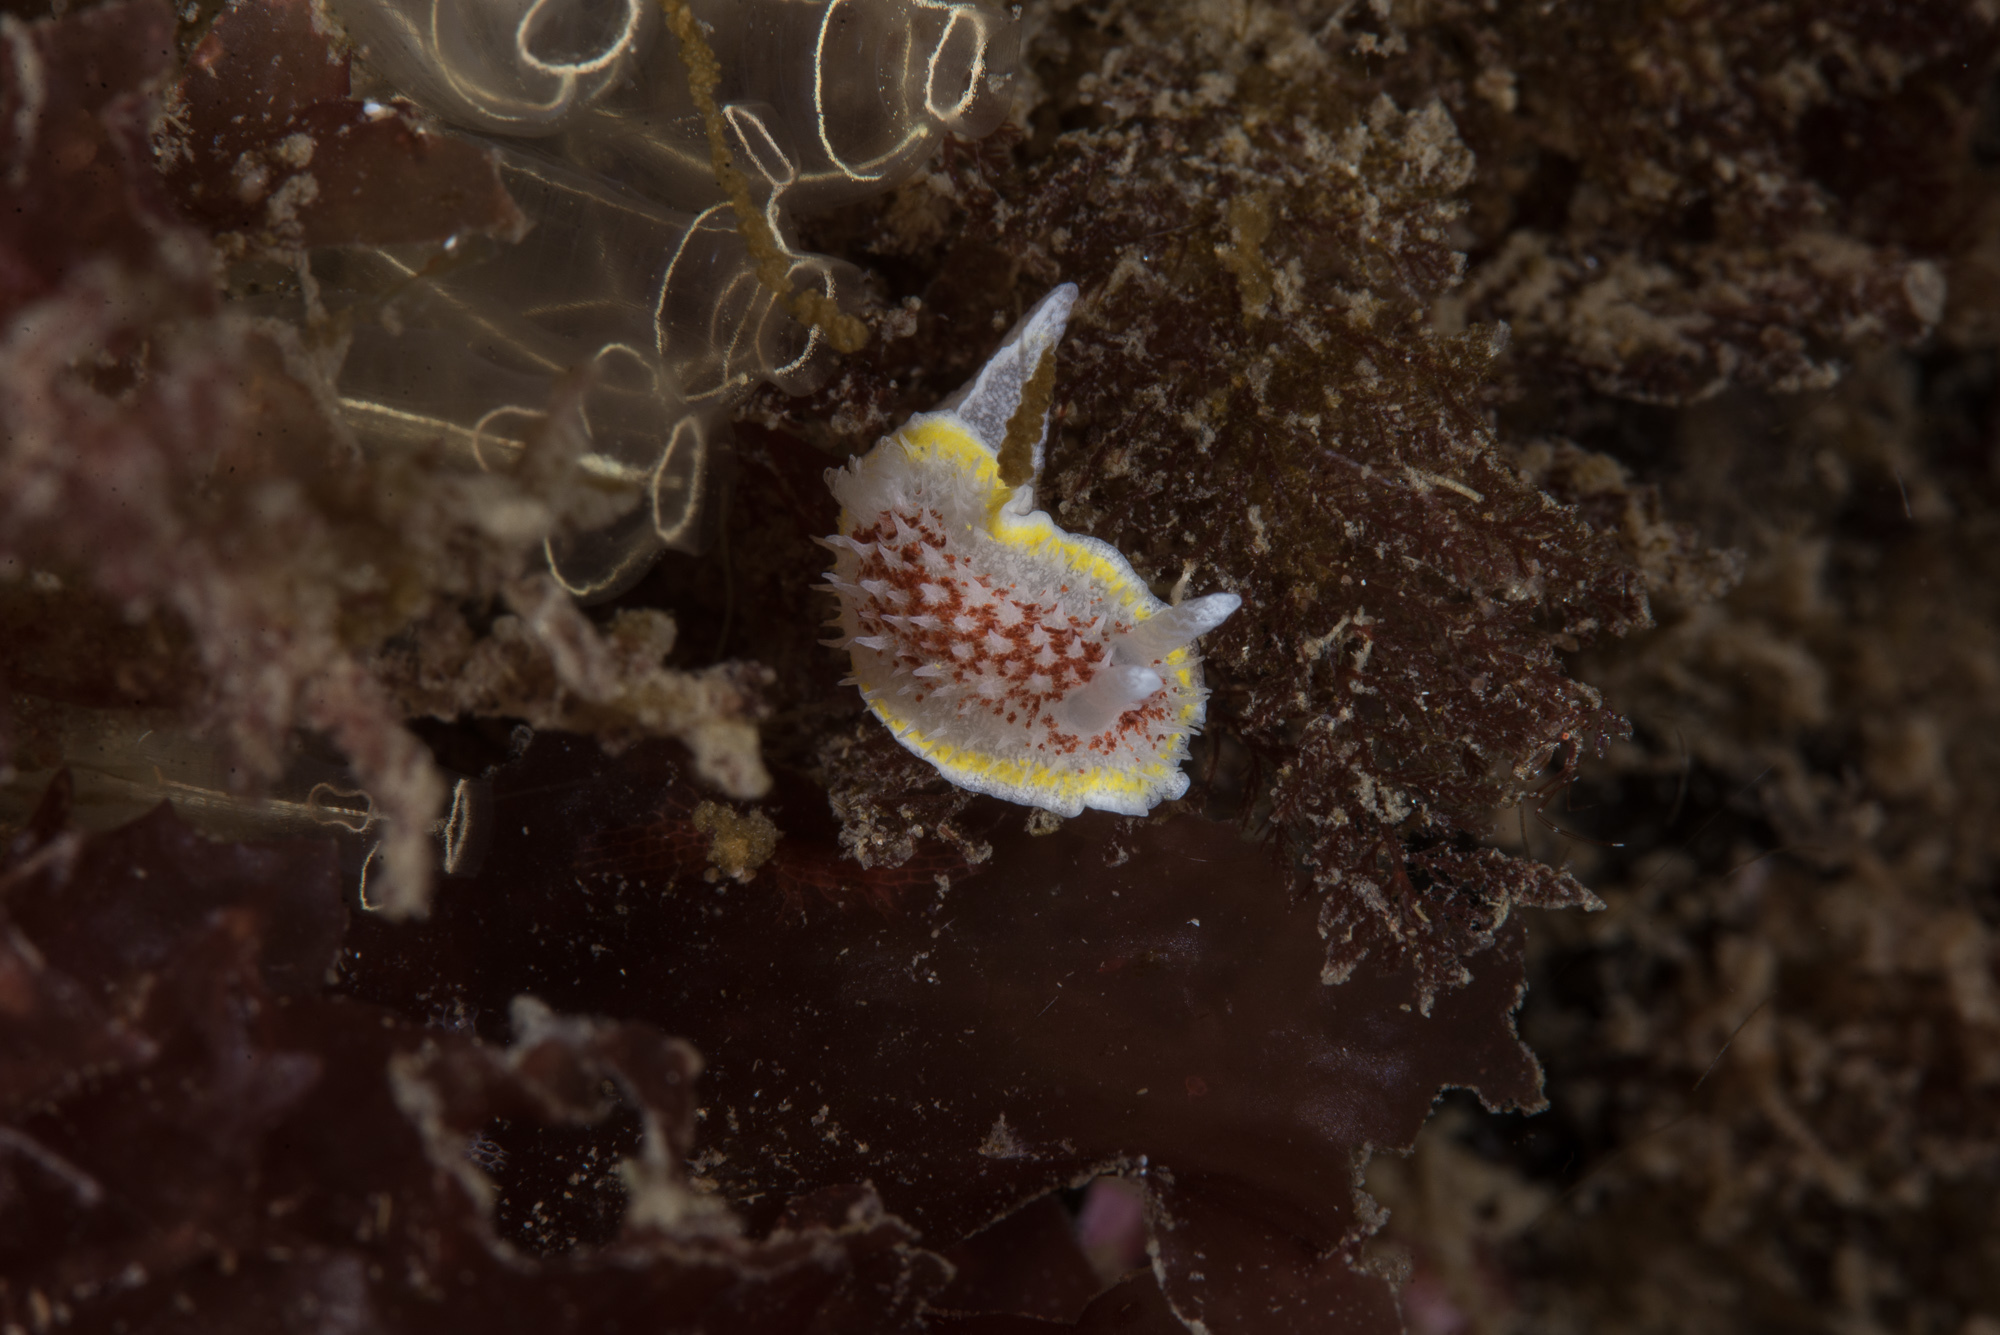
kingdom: Animalia
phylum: Mollusca
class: Gastropoda
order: Nudibranchia
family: Calycidorididae
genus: Diaphorodoris
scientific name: Diaphorodoris luteocincta
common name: Fried egg nudibranch
